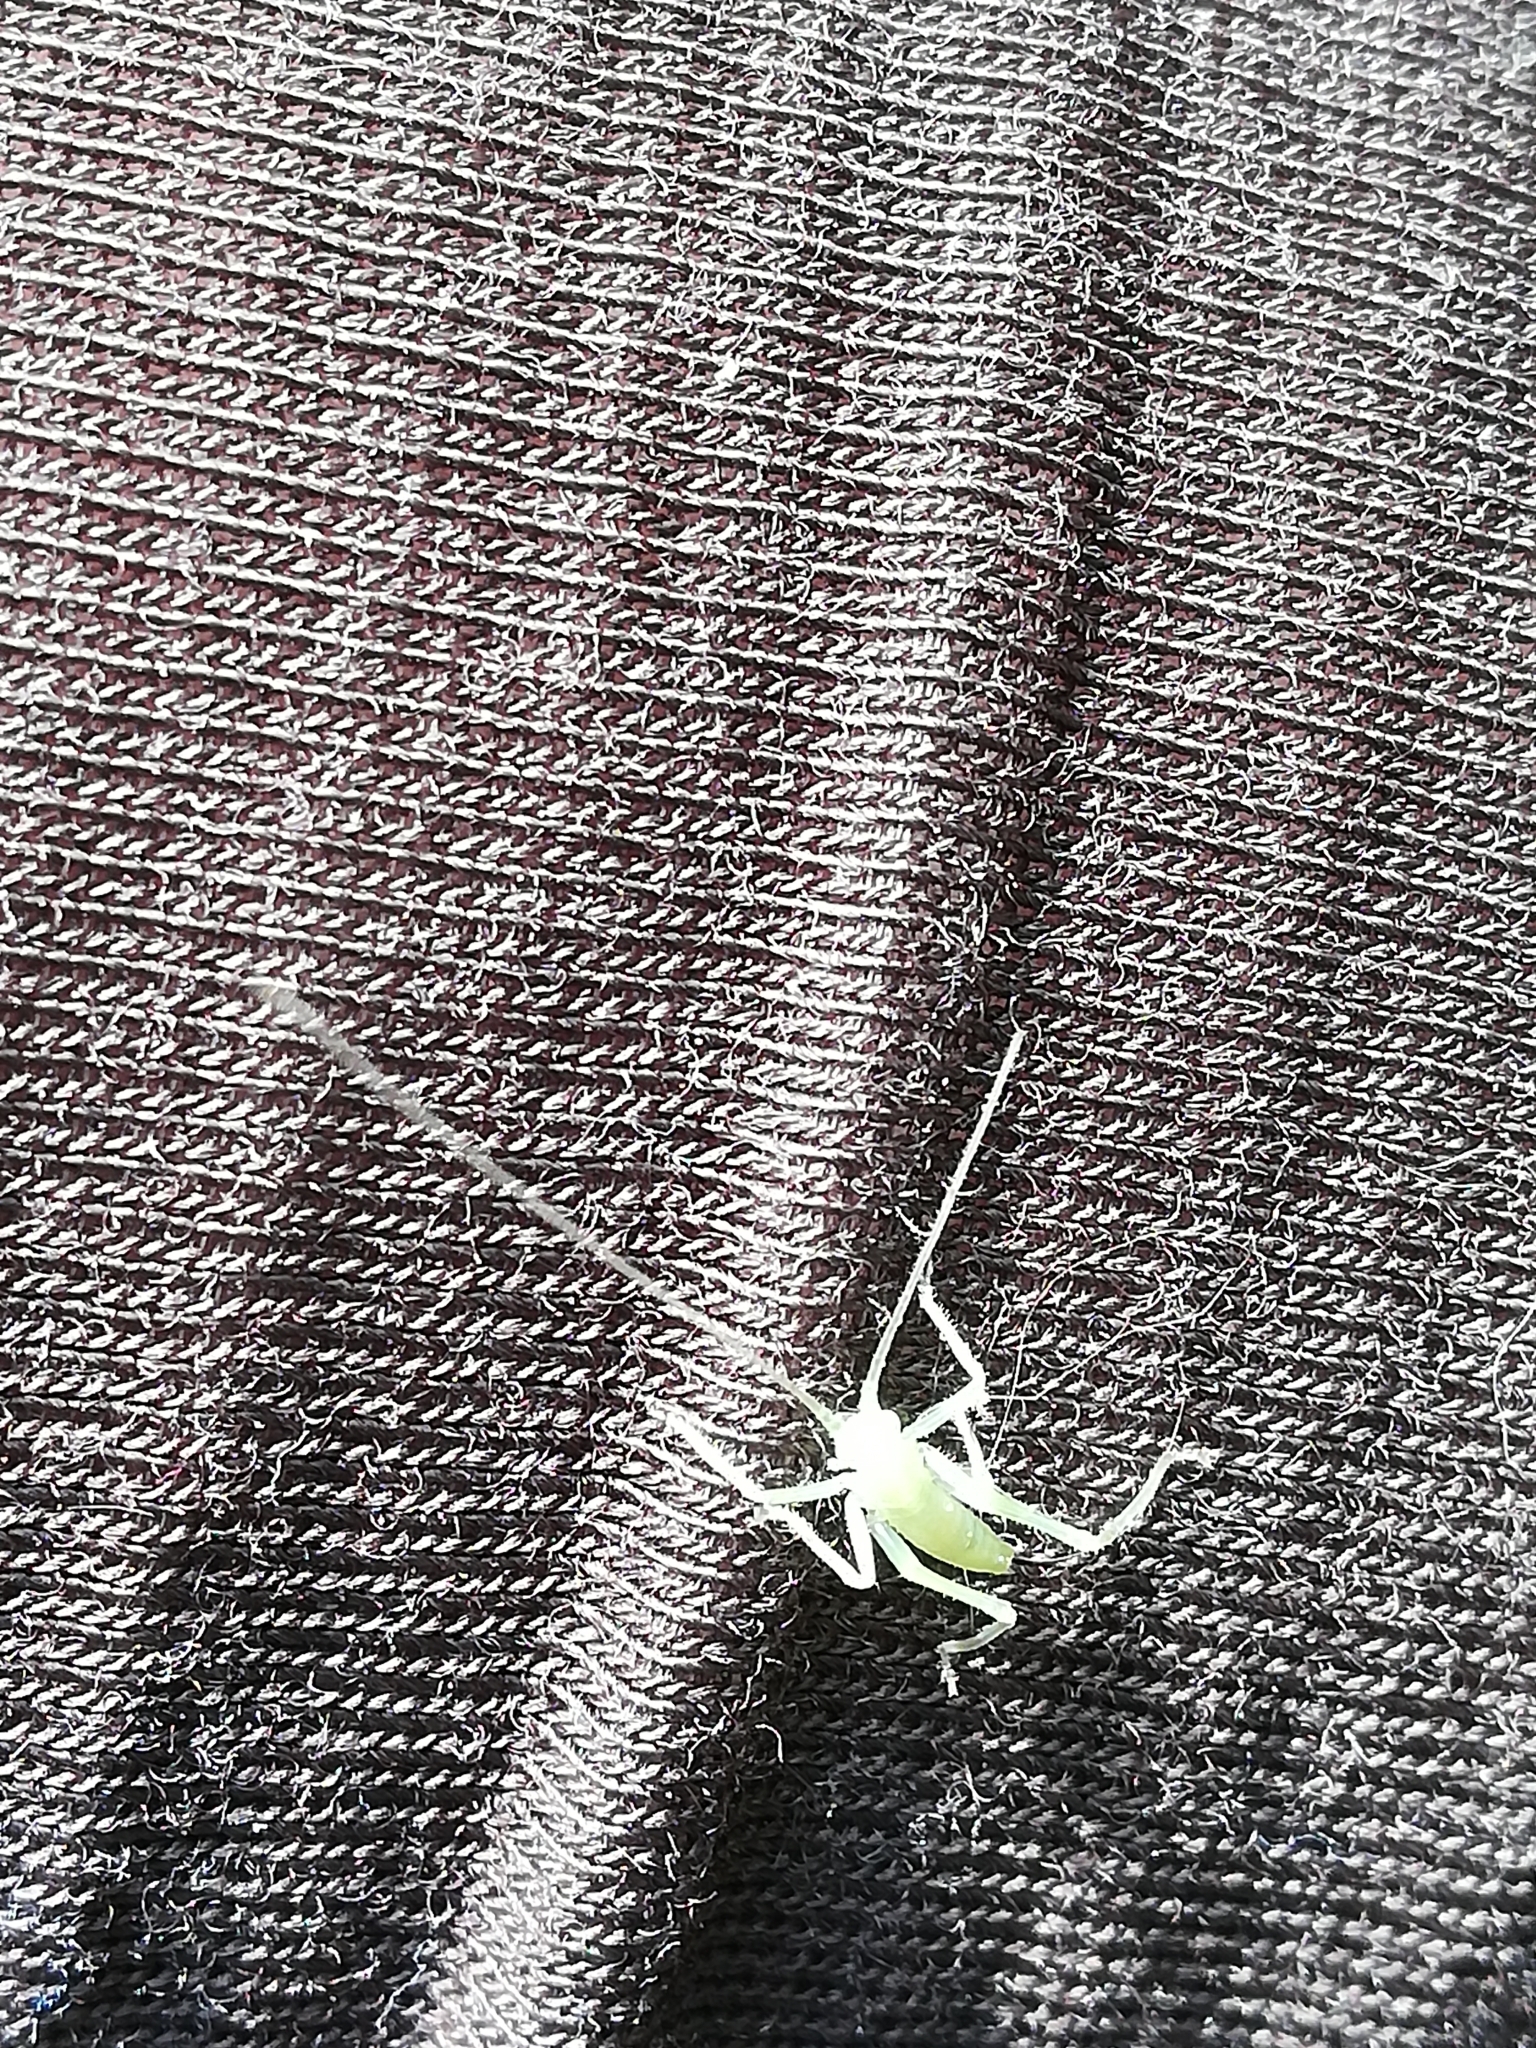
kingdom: Animalia
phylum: Arthropoda
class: Insecta
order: Orthoptera
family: Tettigoniidae
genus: Meconema
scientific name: Meconema thalassinum
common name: Oak bush-cricket
